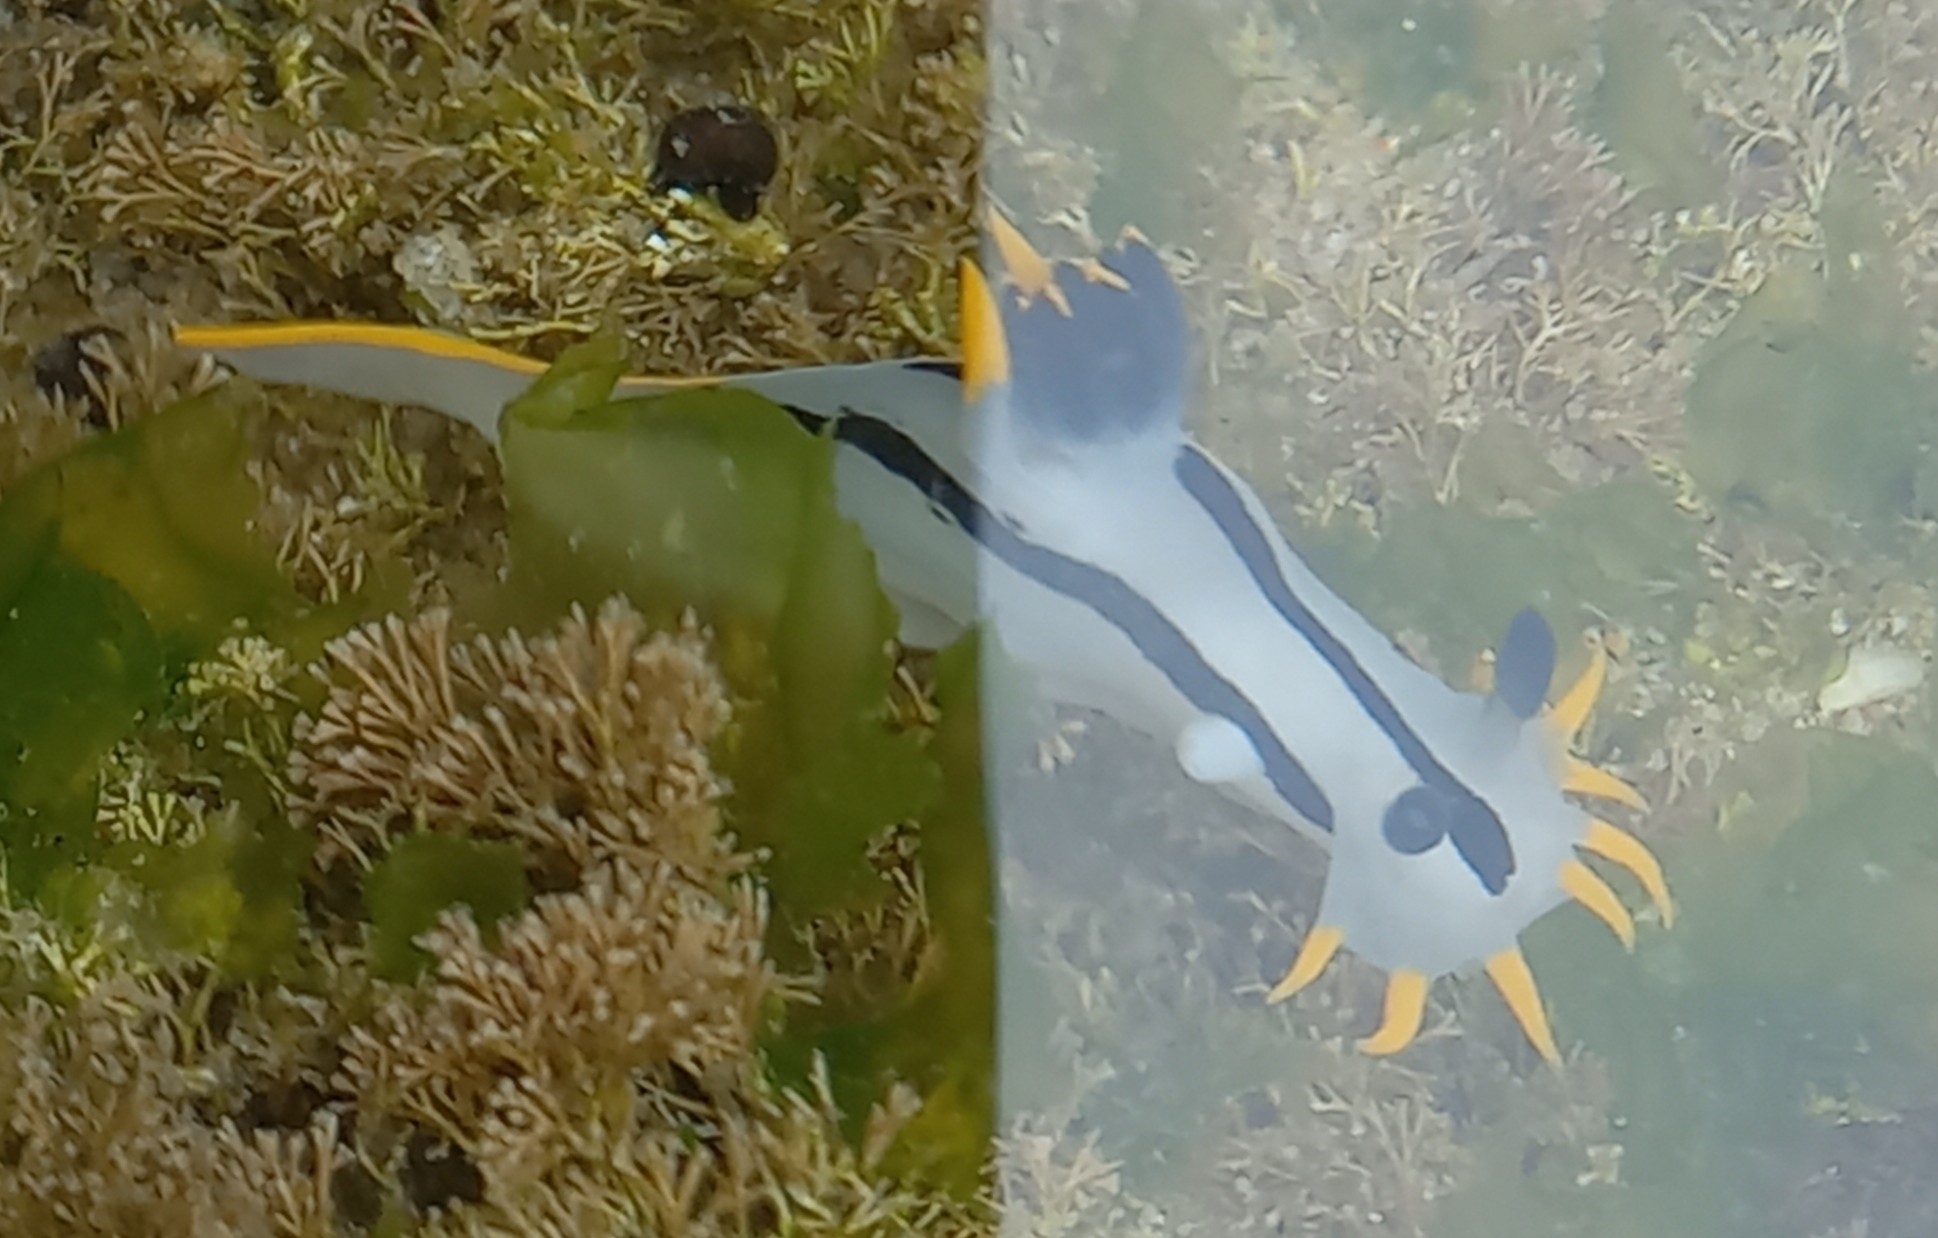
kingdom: Animalia
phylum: Mollusca
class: Gastropoda
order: Nudibranchia
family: Polyceridae
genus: Polycera
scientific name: Polycera capensis
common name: Crowned nudibranch
